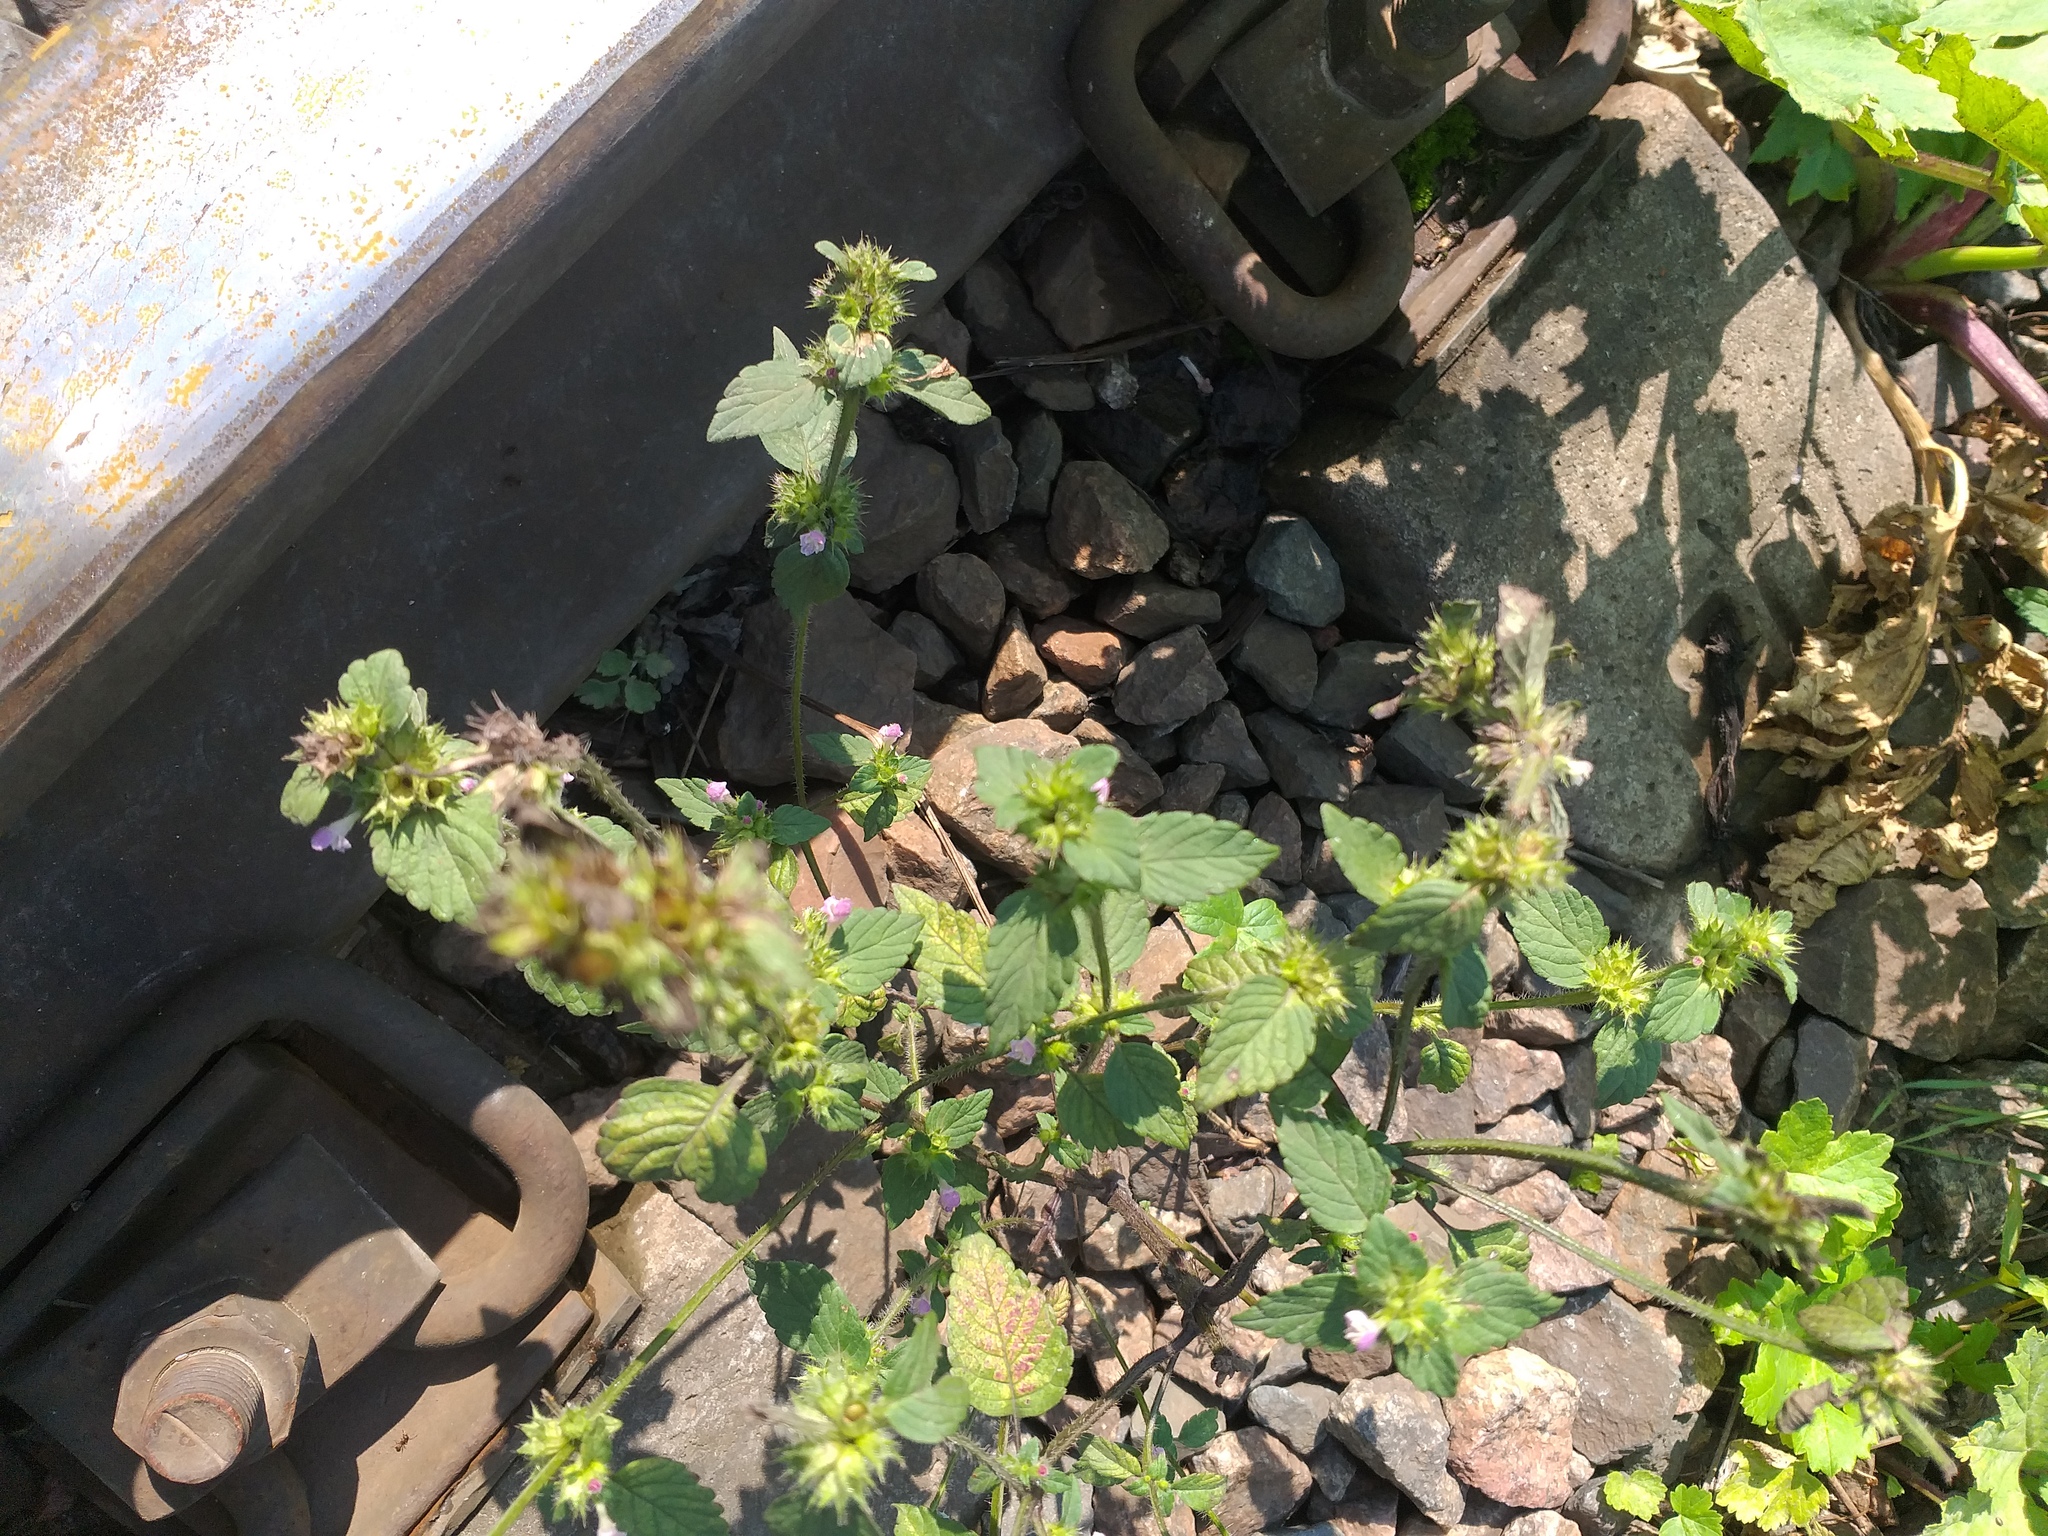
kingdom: Plantae
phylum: Tracheophyta
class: Magnoliopsida
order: Lamiales
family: Lamiaceae
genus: Galeopsis
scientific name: Galeopsis bifida
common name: Bifid hemp-nettle
